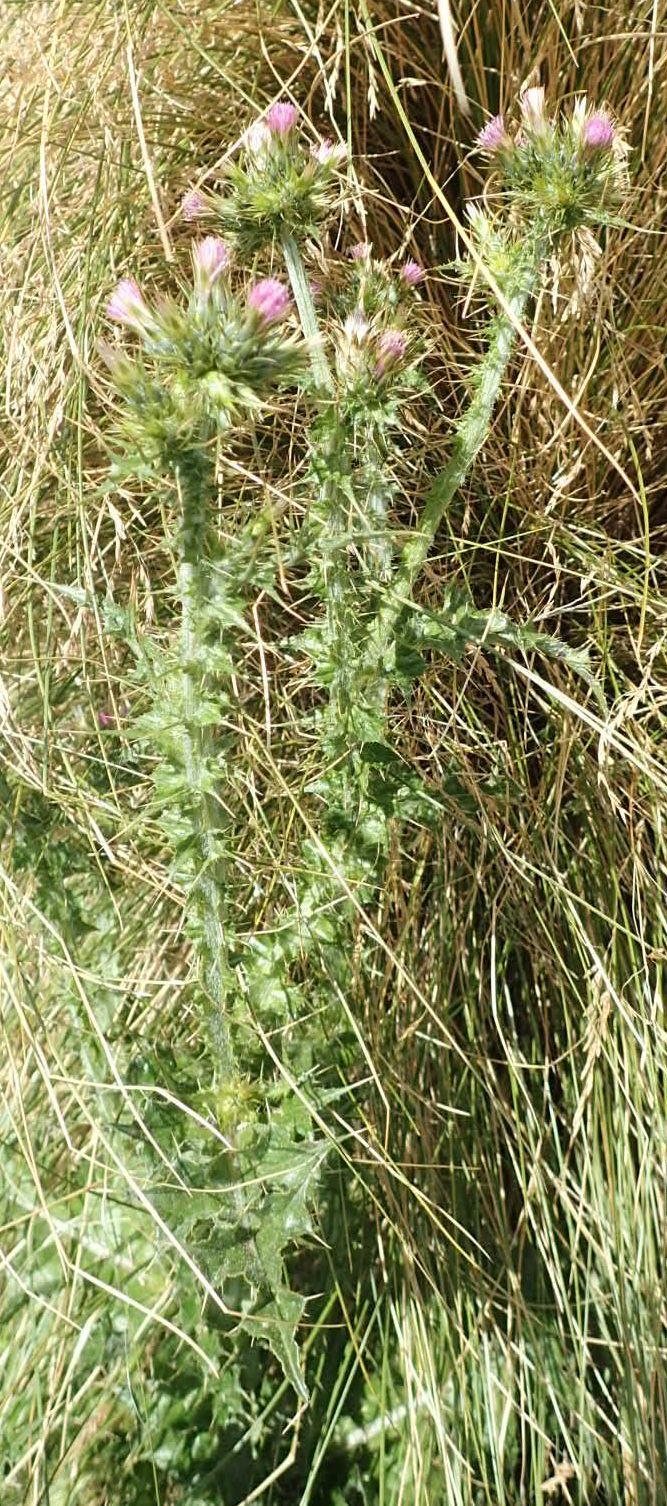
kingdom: Plantae
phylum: Tracheophyta
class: Magnoliopsida
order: Asterales
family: Asteraceae
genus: Carduus
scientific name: Carduus tenuiflorus
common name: Slender thistle
